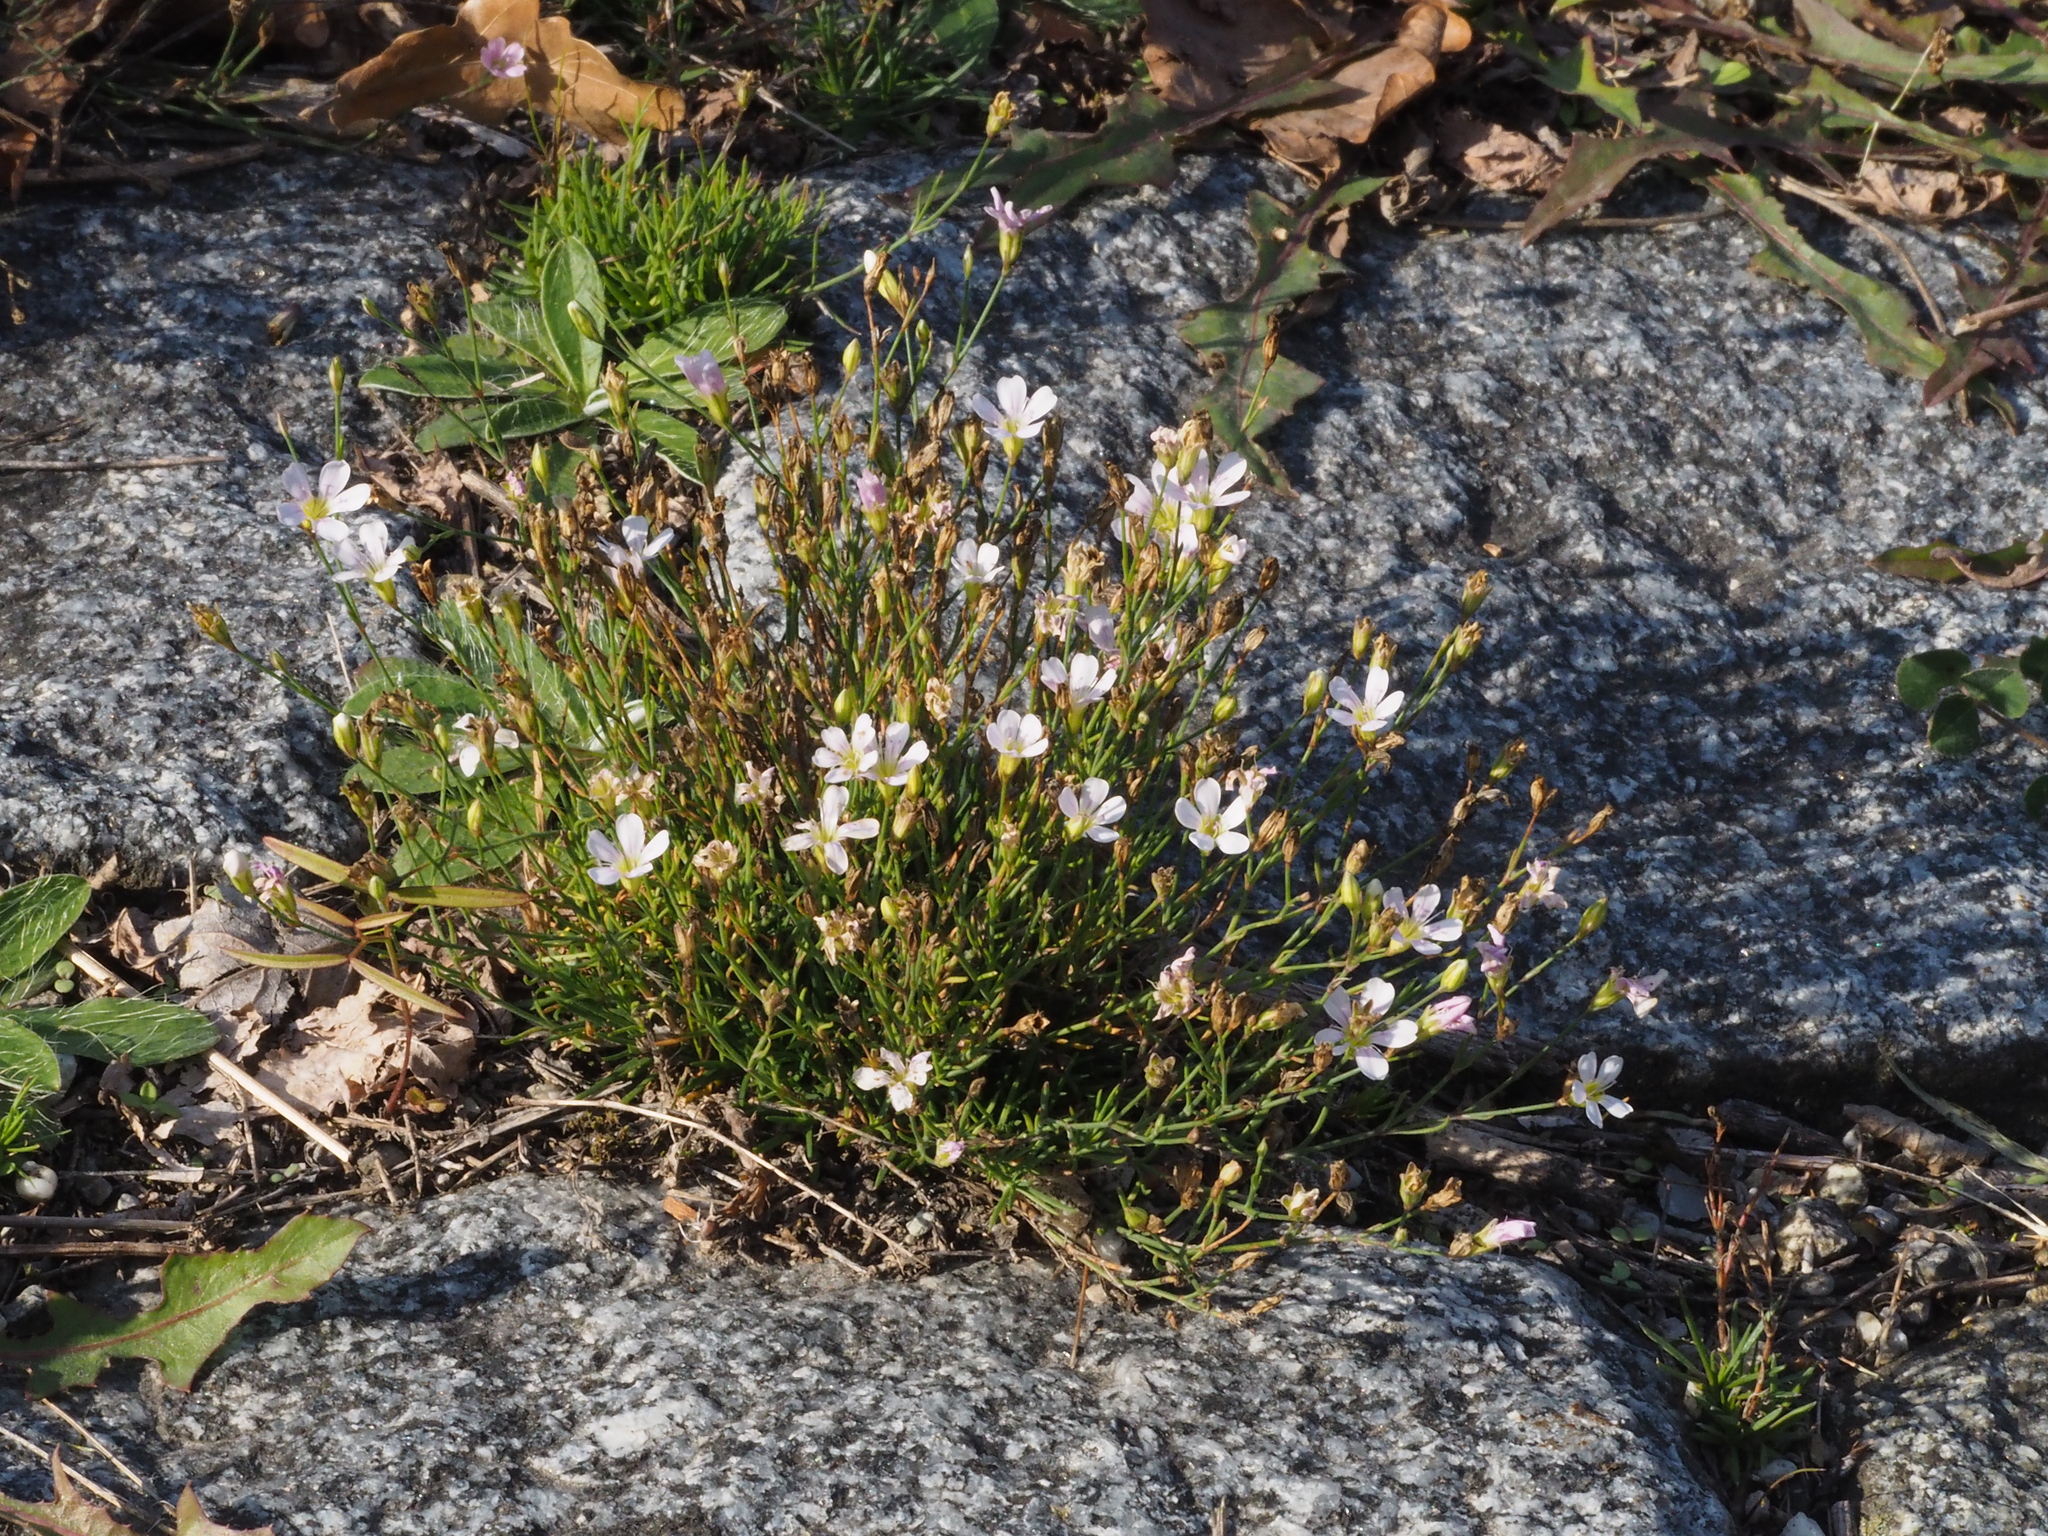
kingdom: Plantae
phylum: Tracheophyta
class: Magnoliopsida
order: Caryophyllales
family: Caryophyllaceae
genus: Petrorhagia
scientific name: Petrorhagia saxifraga
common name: Tunicflower
